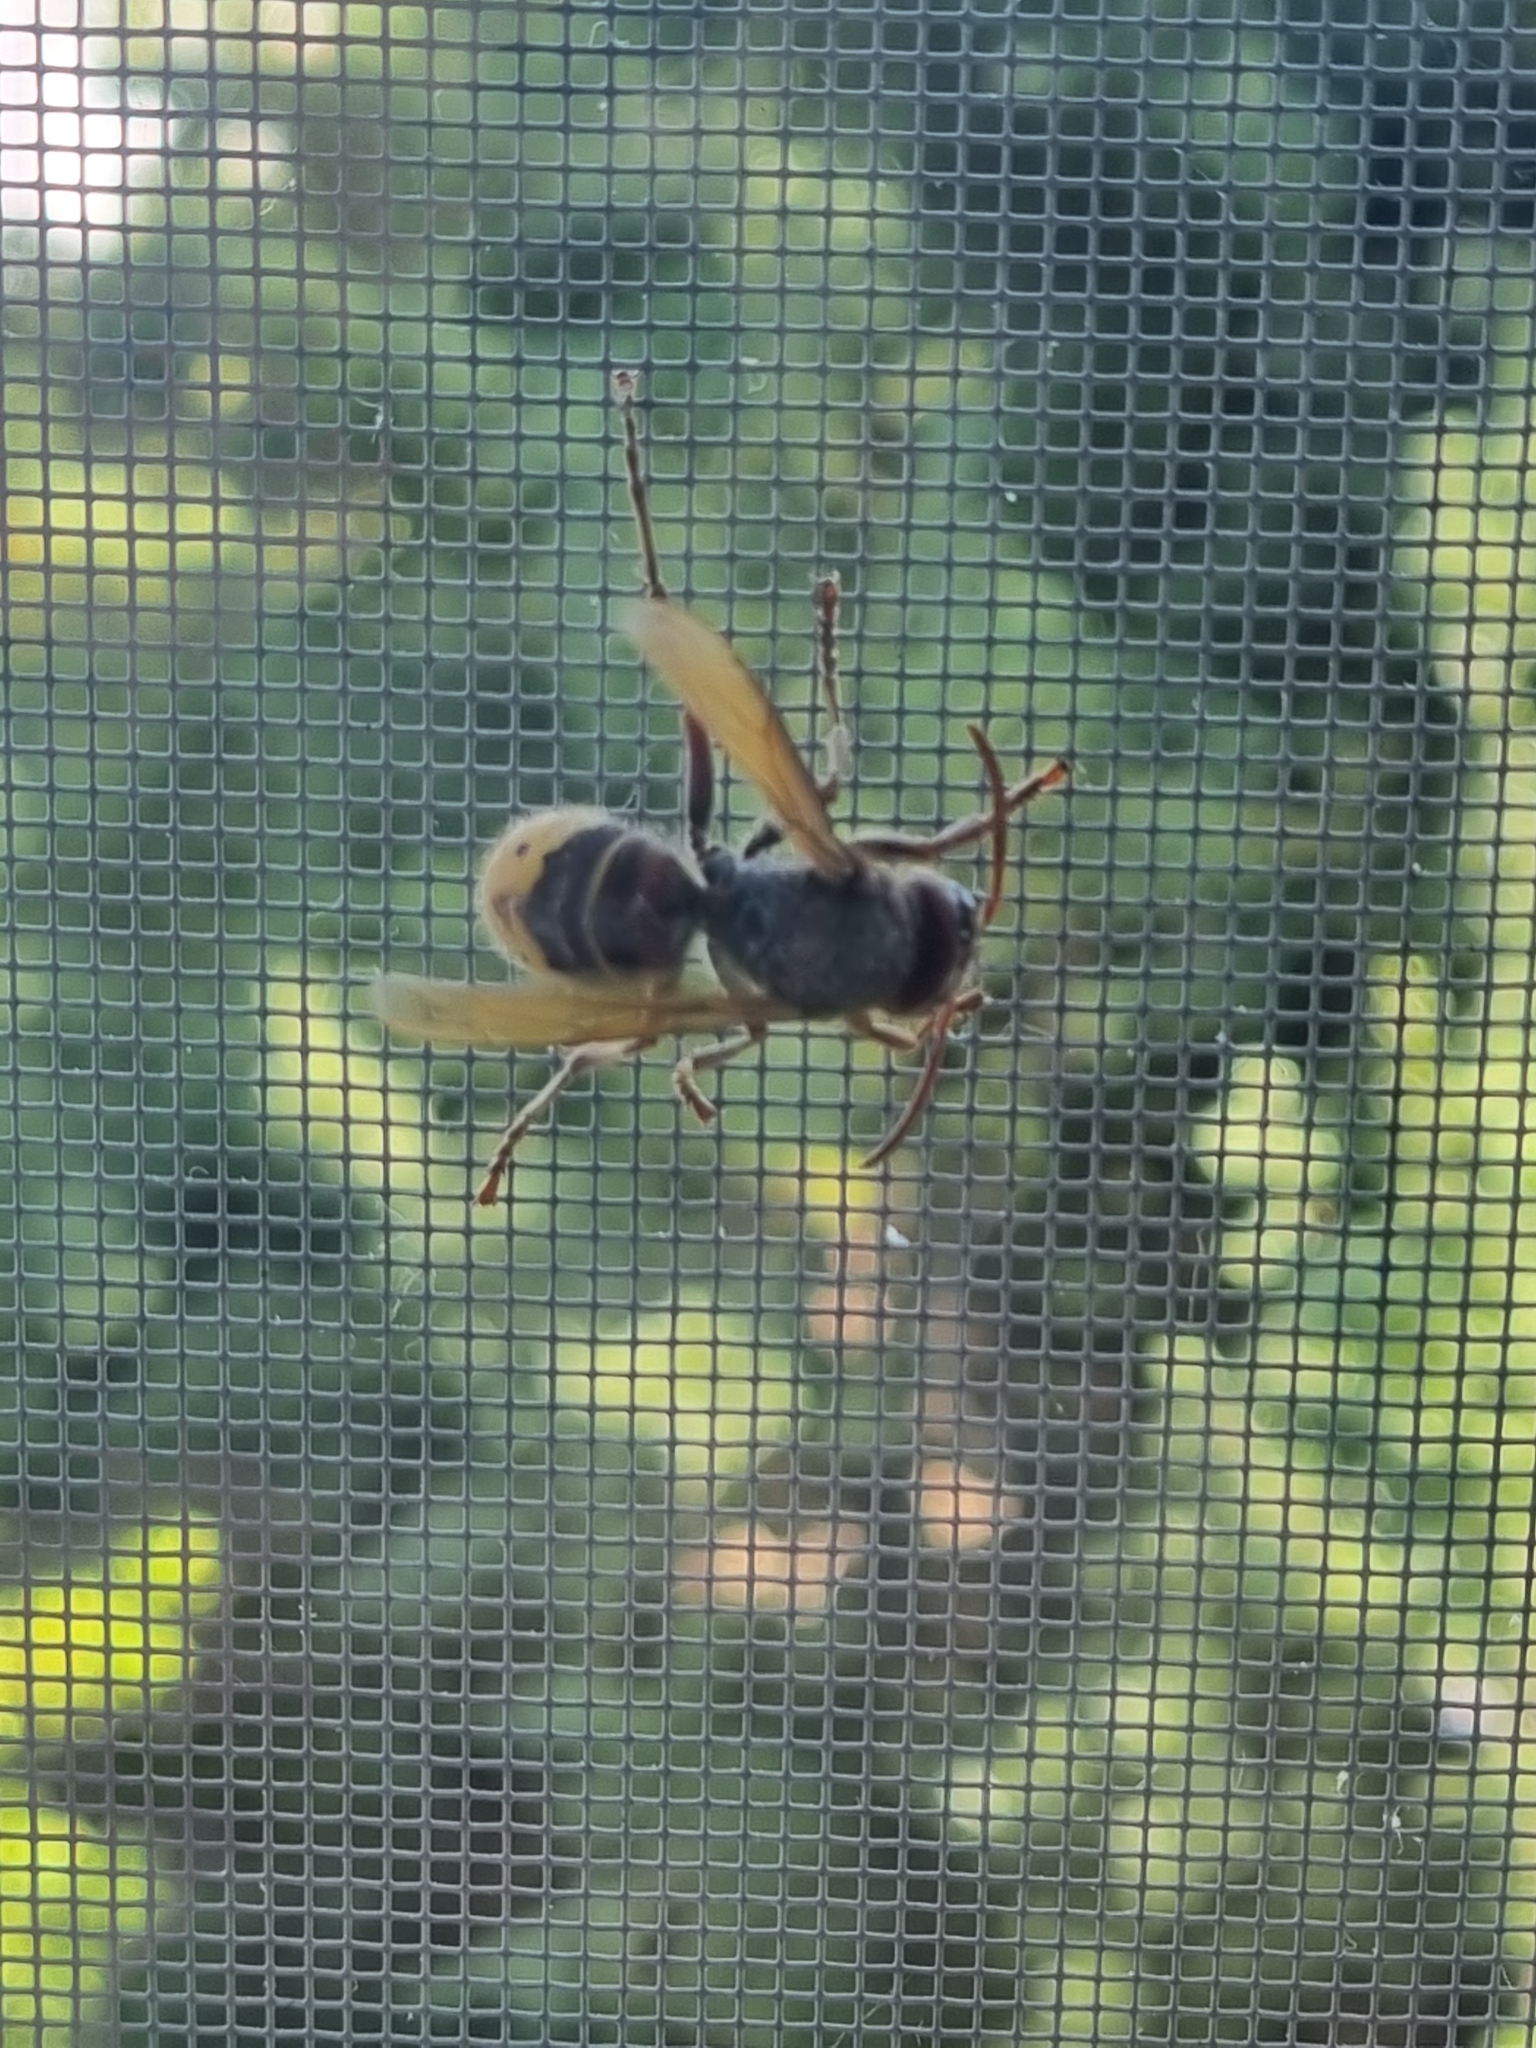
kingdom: Animalia
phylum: Arthropoda
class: Insecta
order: Hymenoptera
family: Vespidae
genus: Vespa
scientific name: Vespa crabro
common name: Hornet
